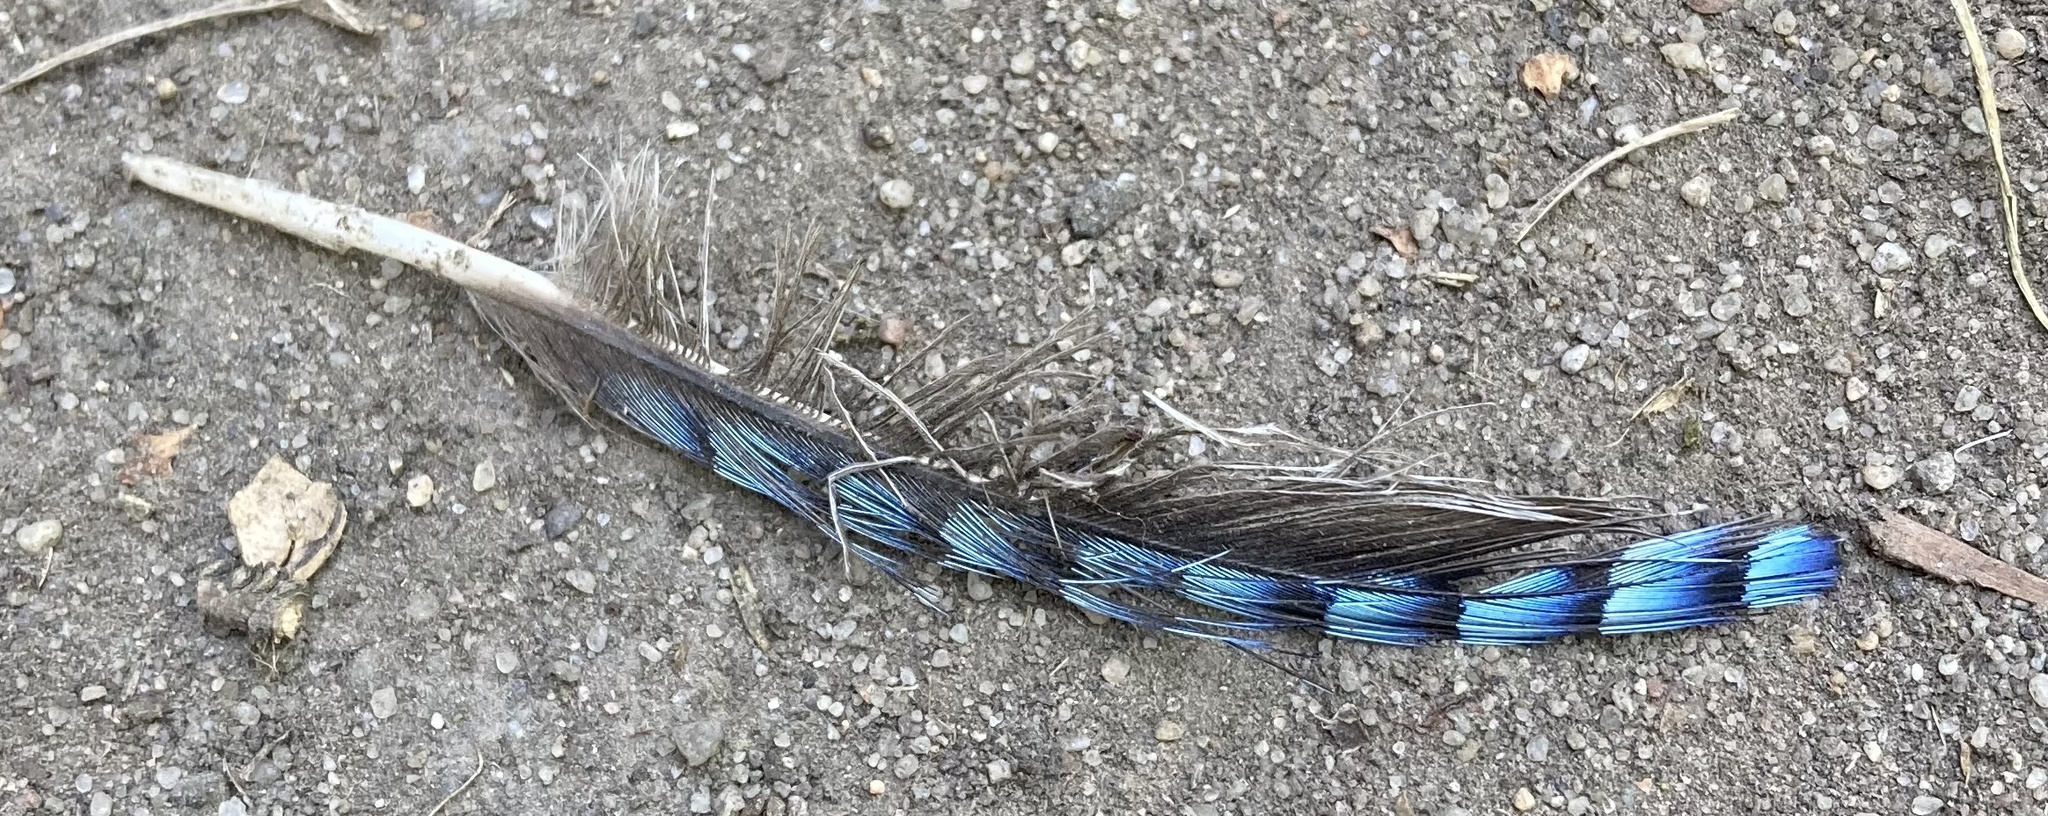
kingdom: Animalia
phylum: Chordata
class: Aves
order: Passeriformes
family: Corvidae
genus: Garrulus
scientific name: Garrulus glandarius
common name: Eurasian jay
